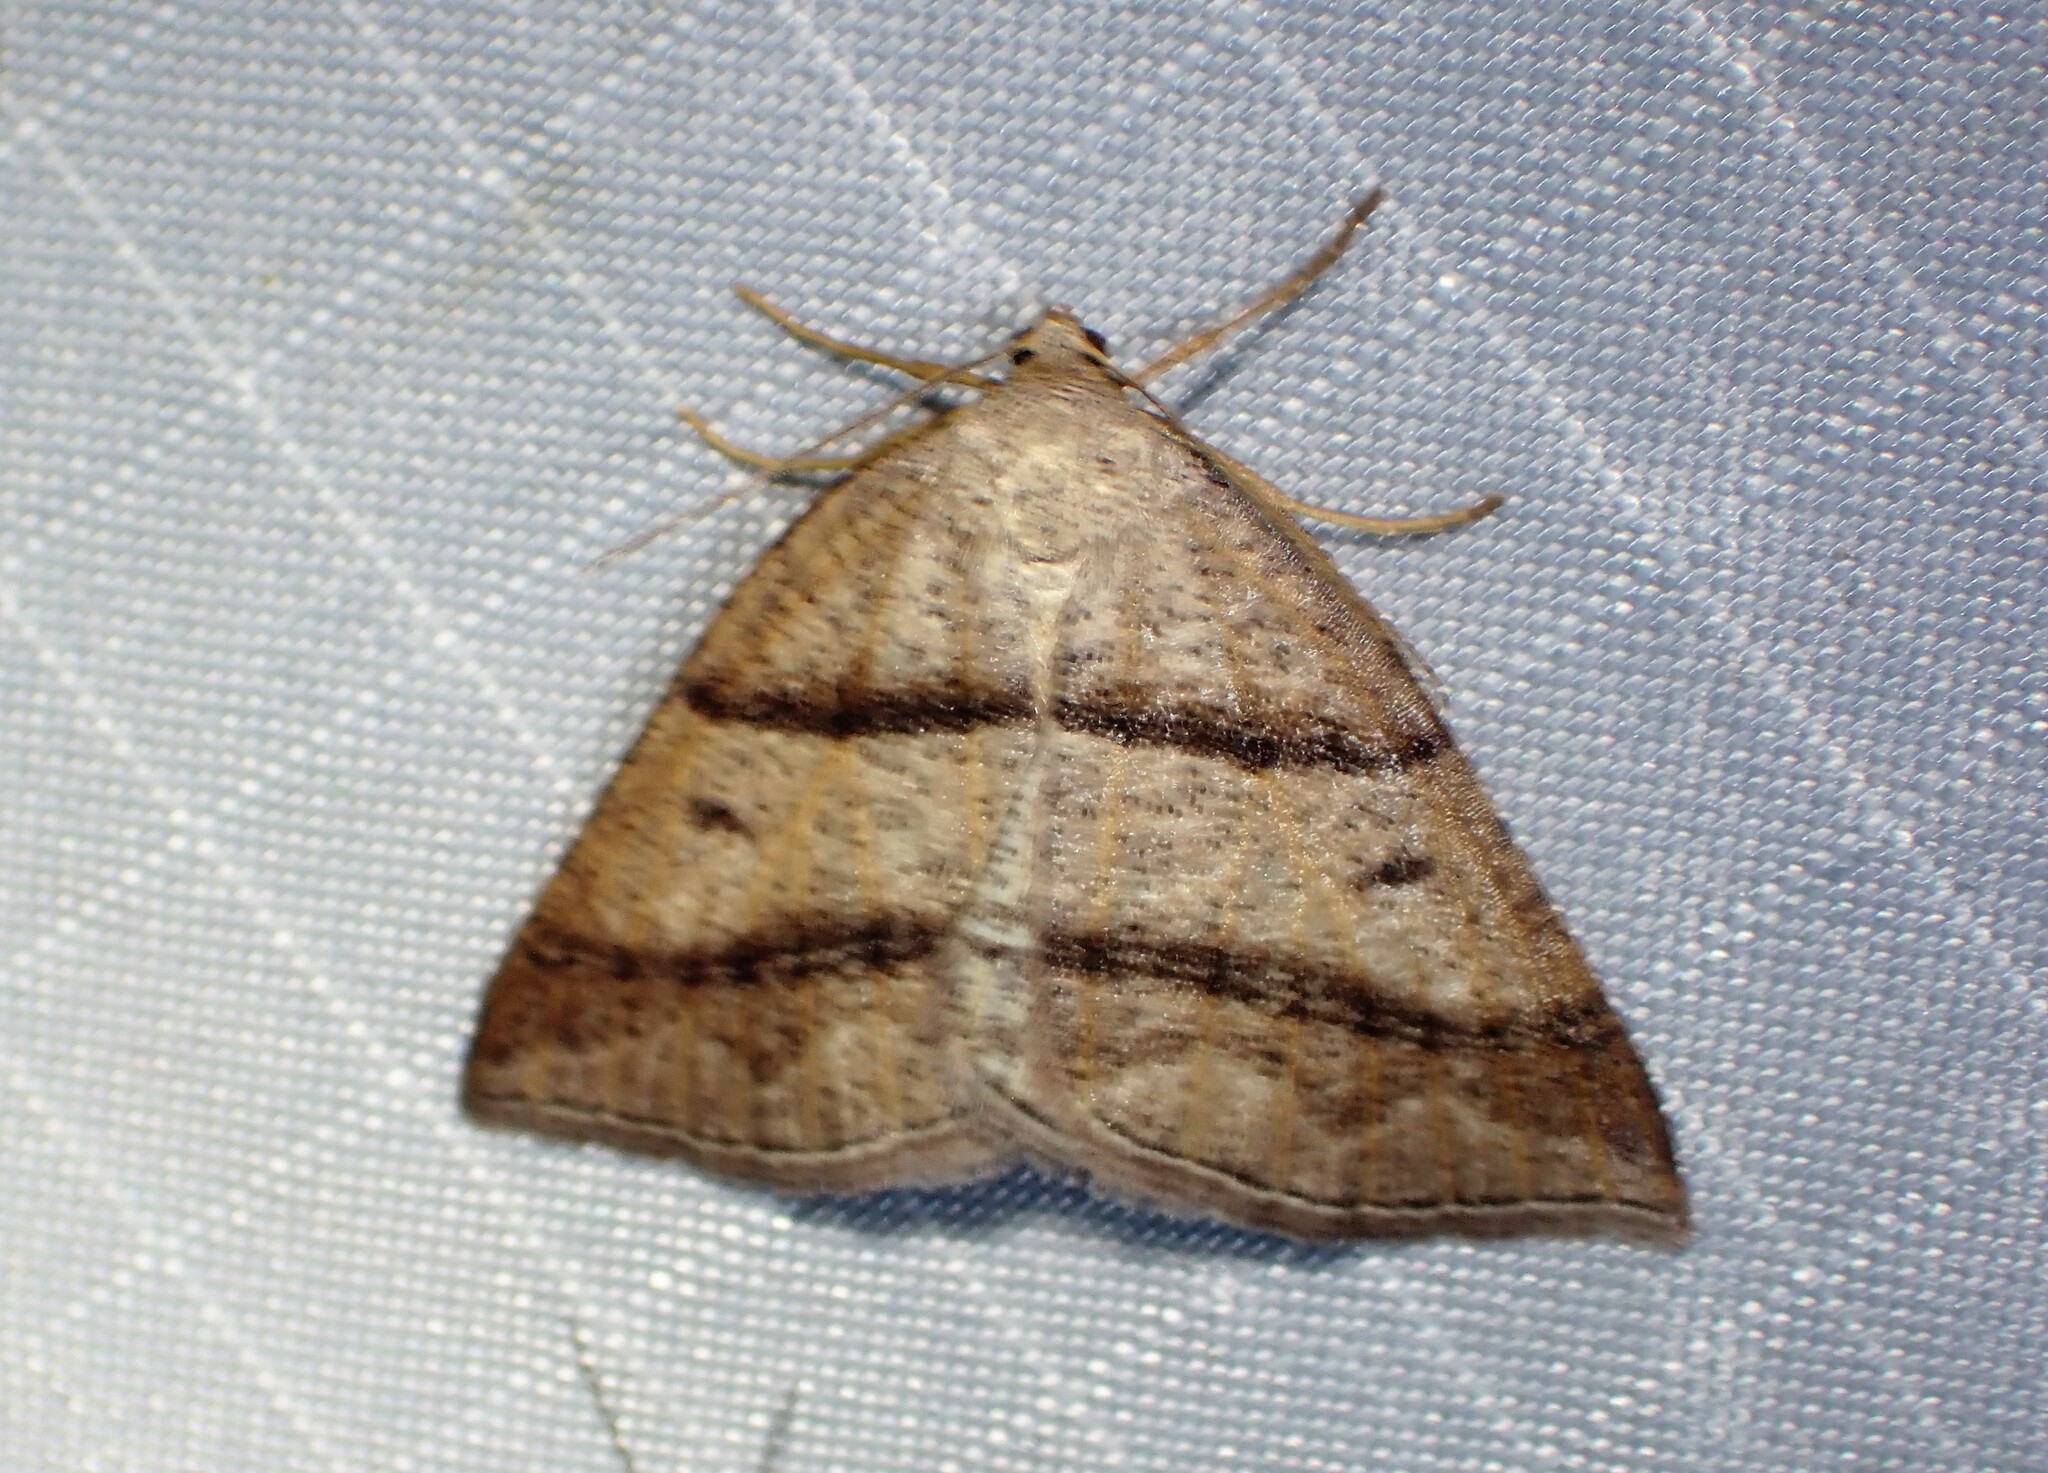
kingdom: Animalia
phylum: Arthropoda
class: Insecta
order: Lepidoptera
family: Pterophoridae
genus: Pterophorus
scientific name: Pterophorus Petrophora subaequaria
